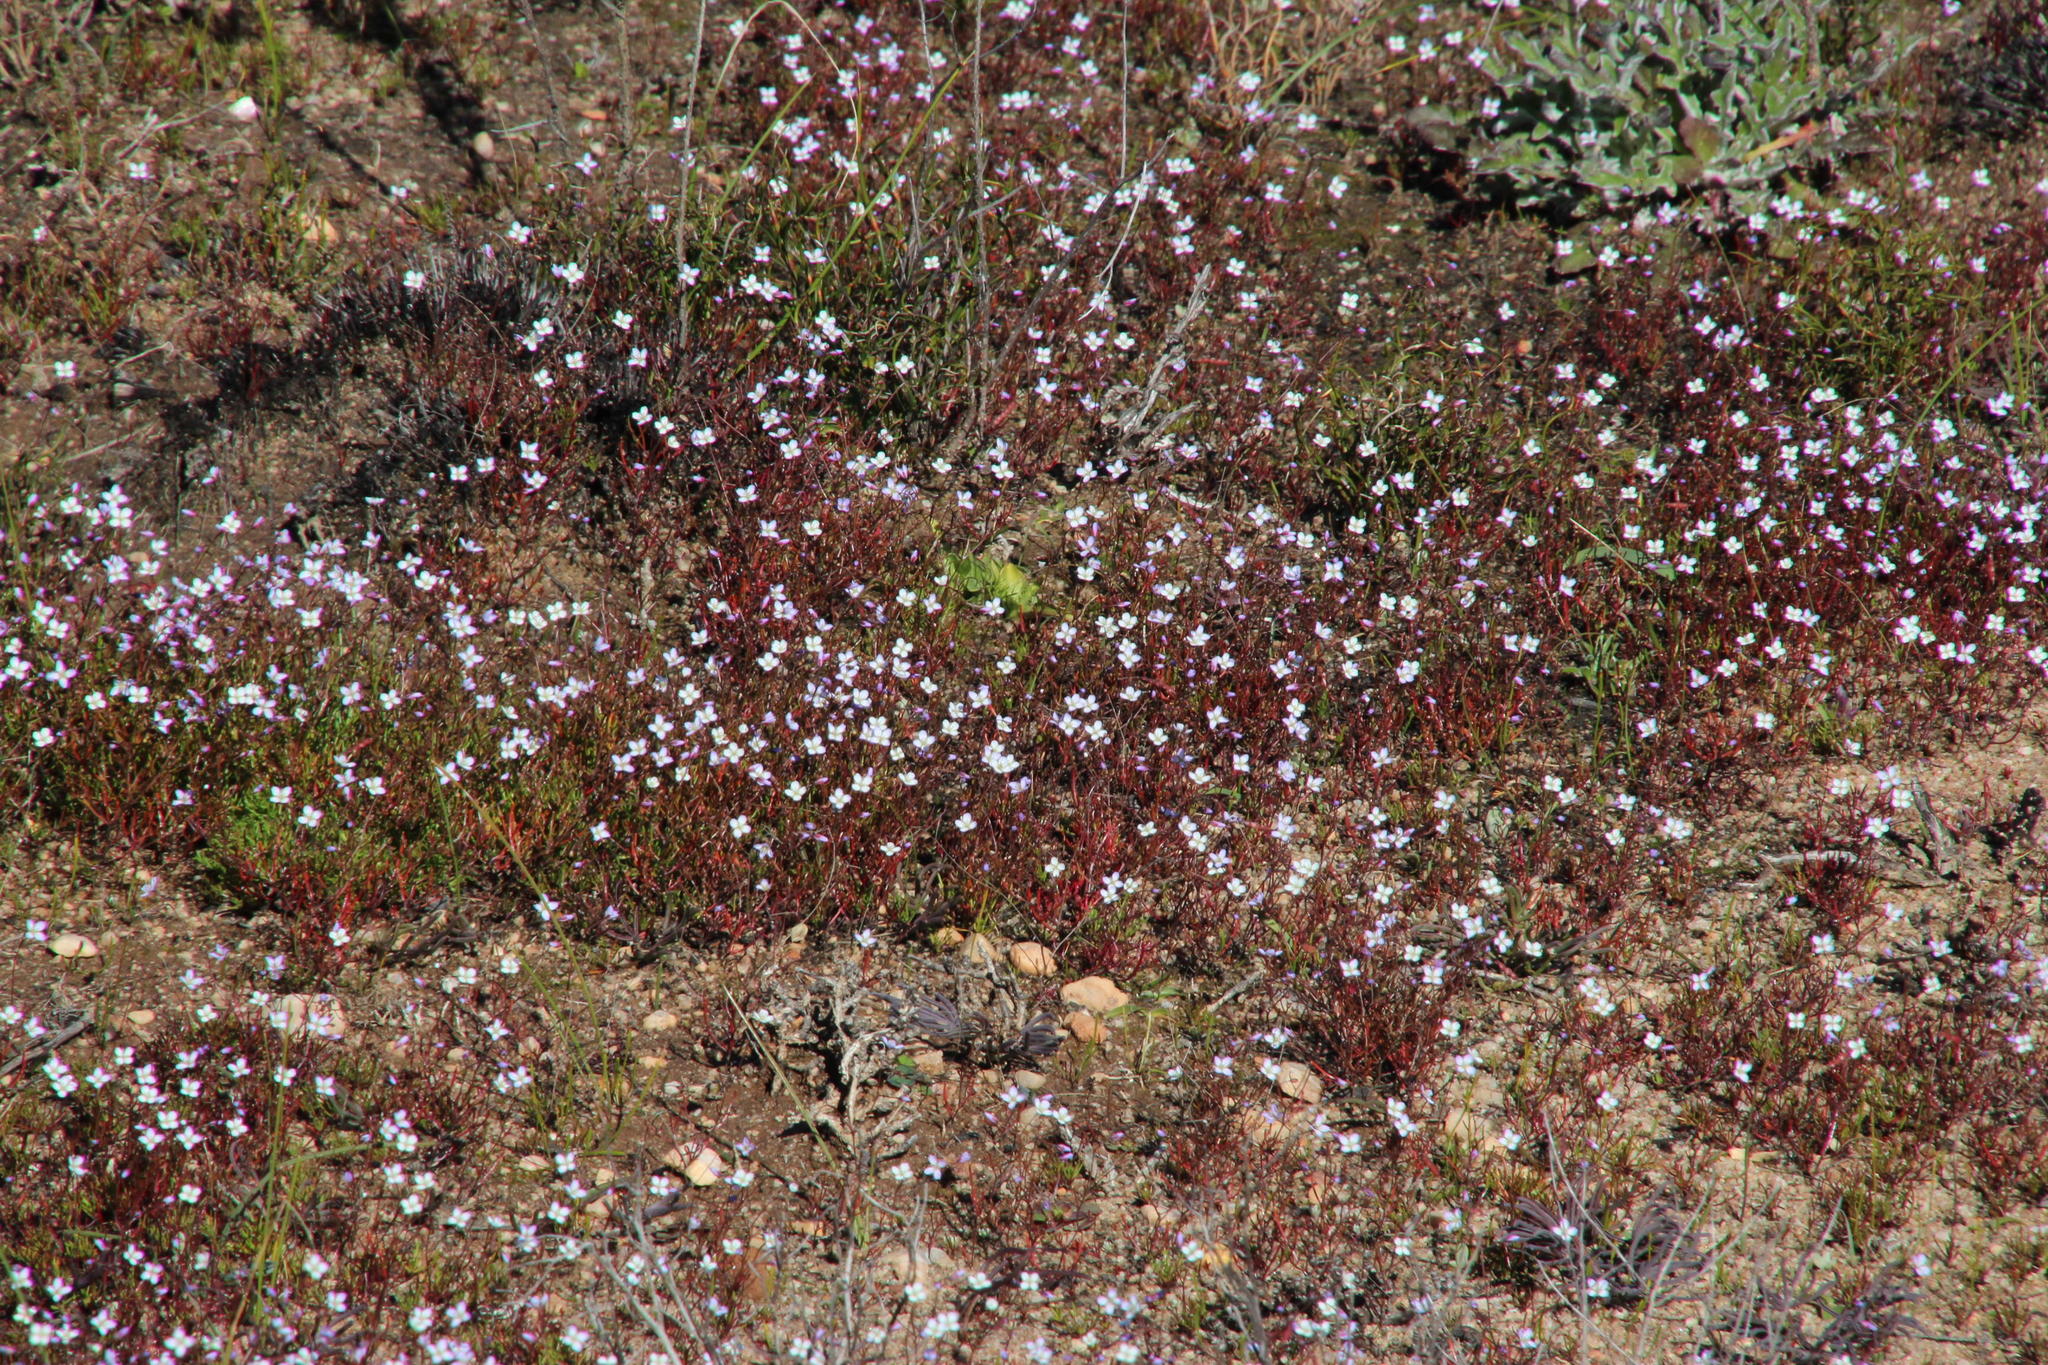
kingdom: Plantae
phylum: Tracheophyta
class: Magnoliopsida
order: Brassicales
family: Brassicaceae
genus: Heliophila
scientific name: Heliophila pinnata
